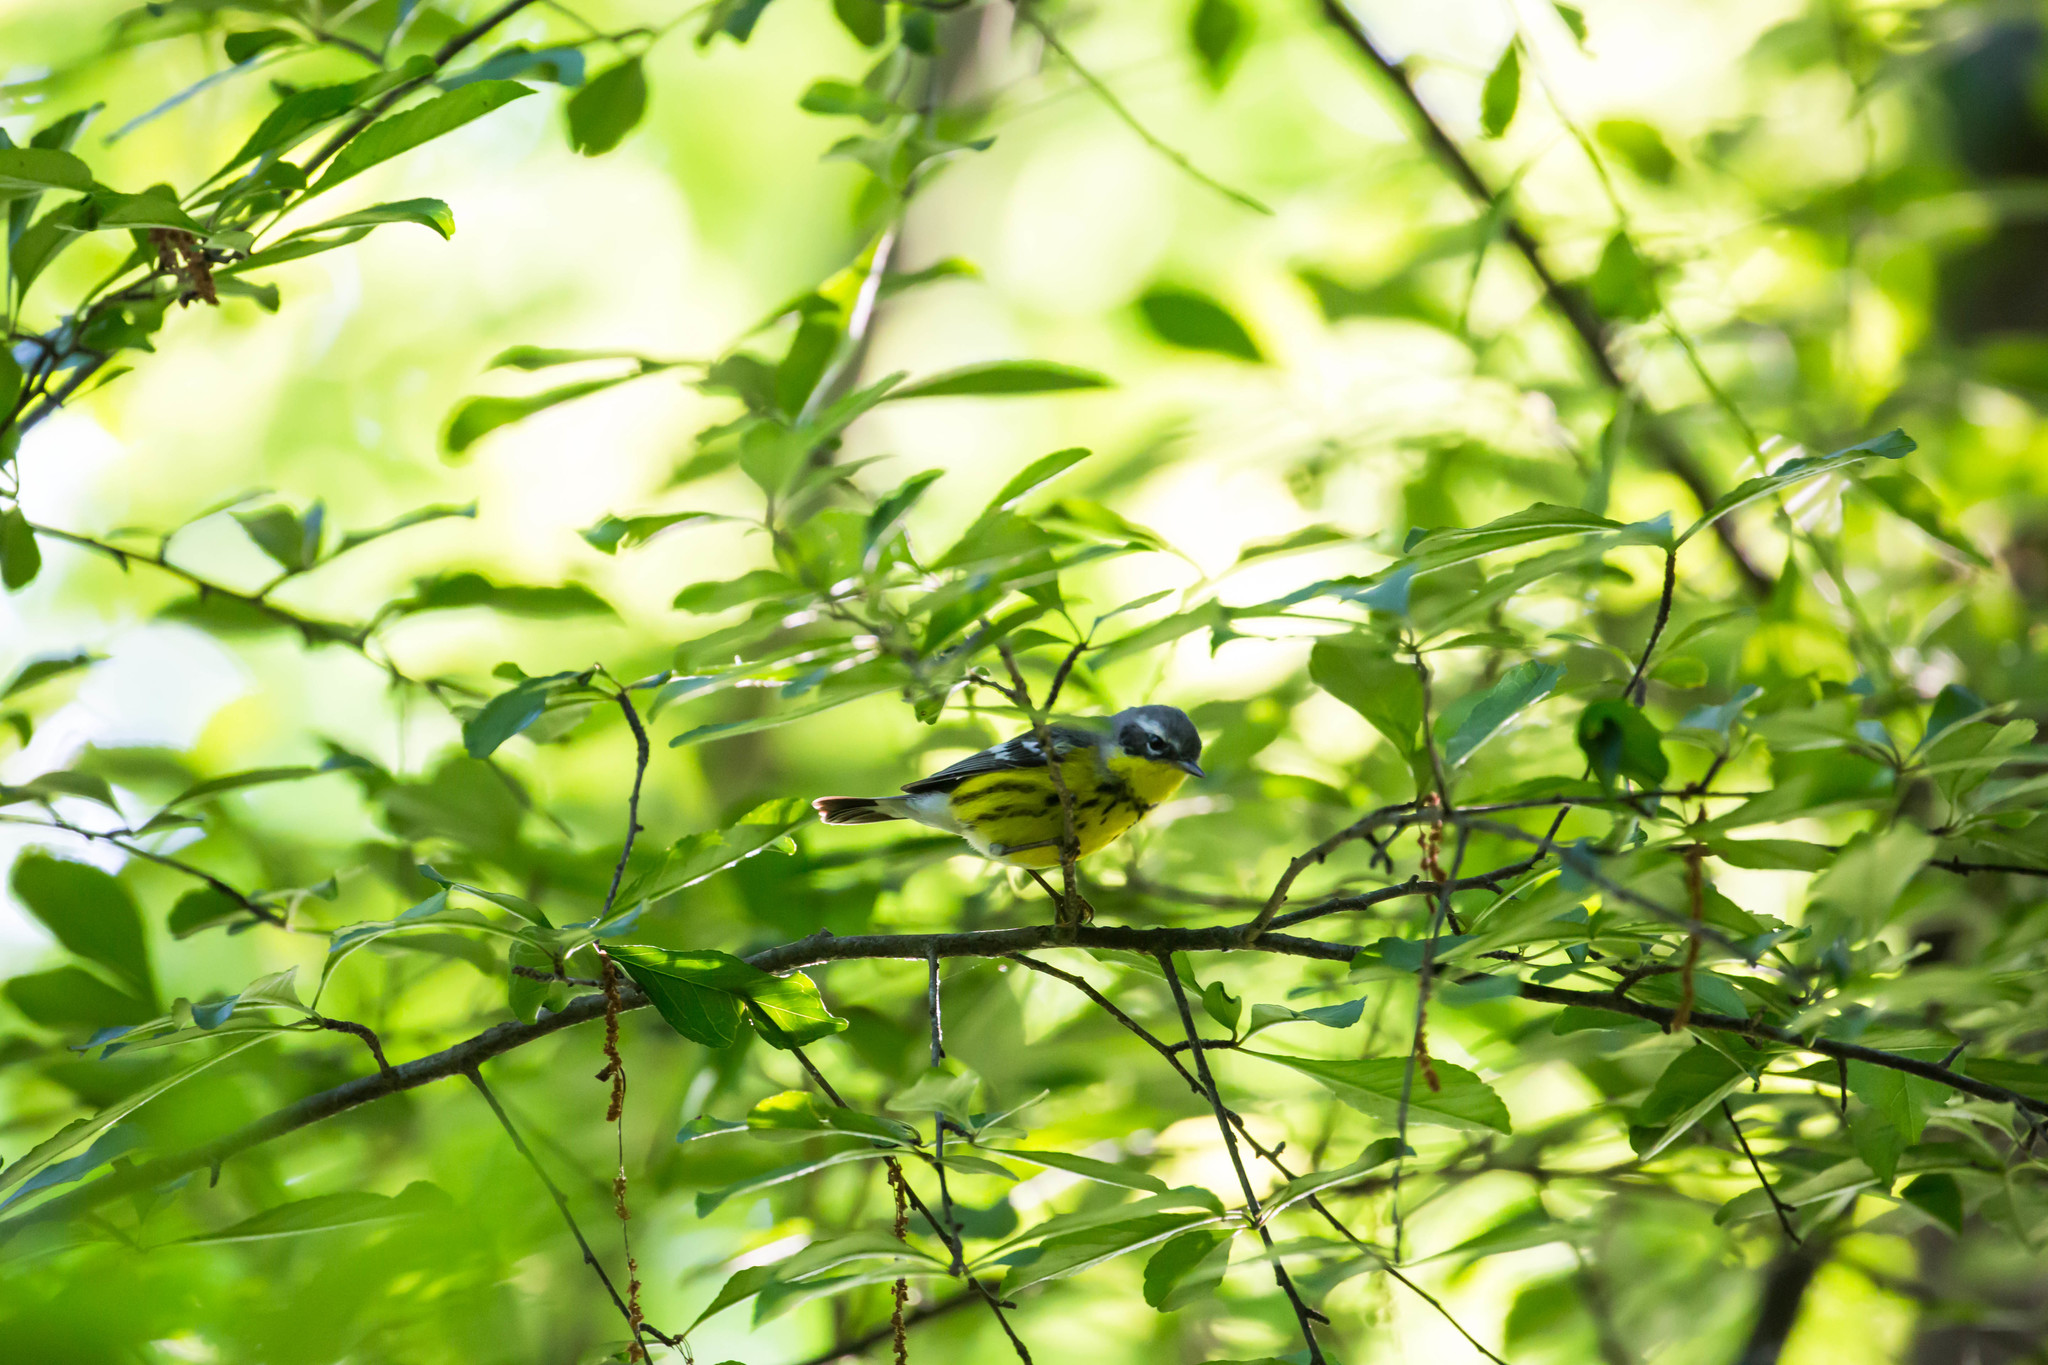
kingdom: Animalia
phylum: Chordata
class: Aves
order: Passeriformes
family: Parulidae
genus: Setophaga
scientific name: Setophaga magnolia
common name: Magnolia warbler
